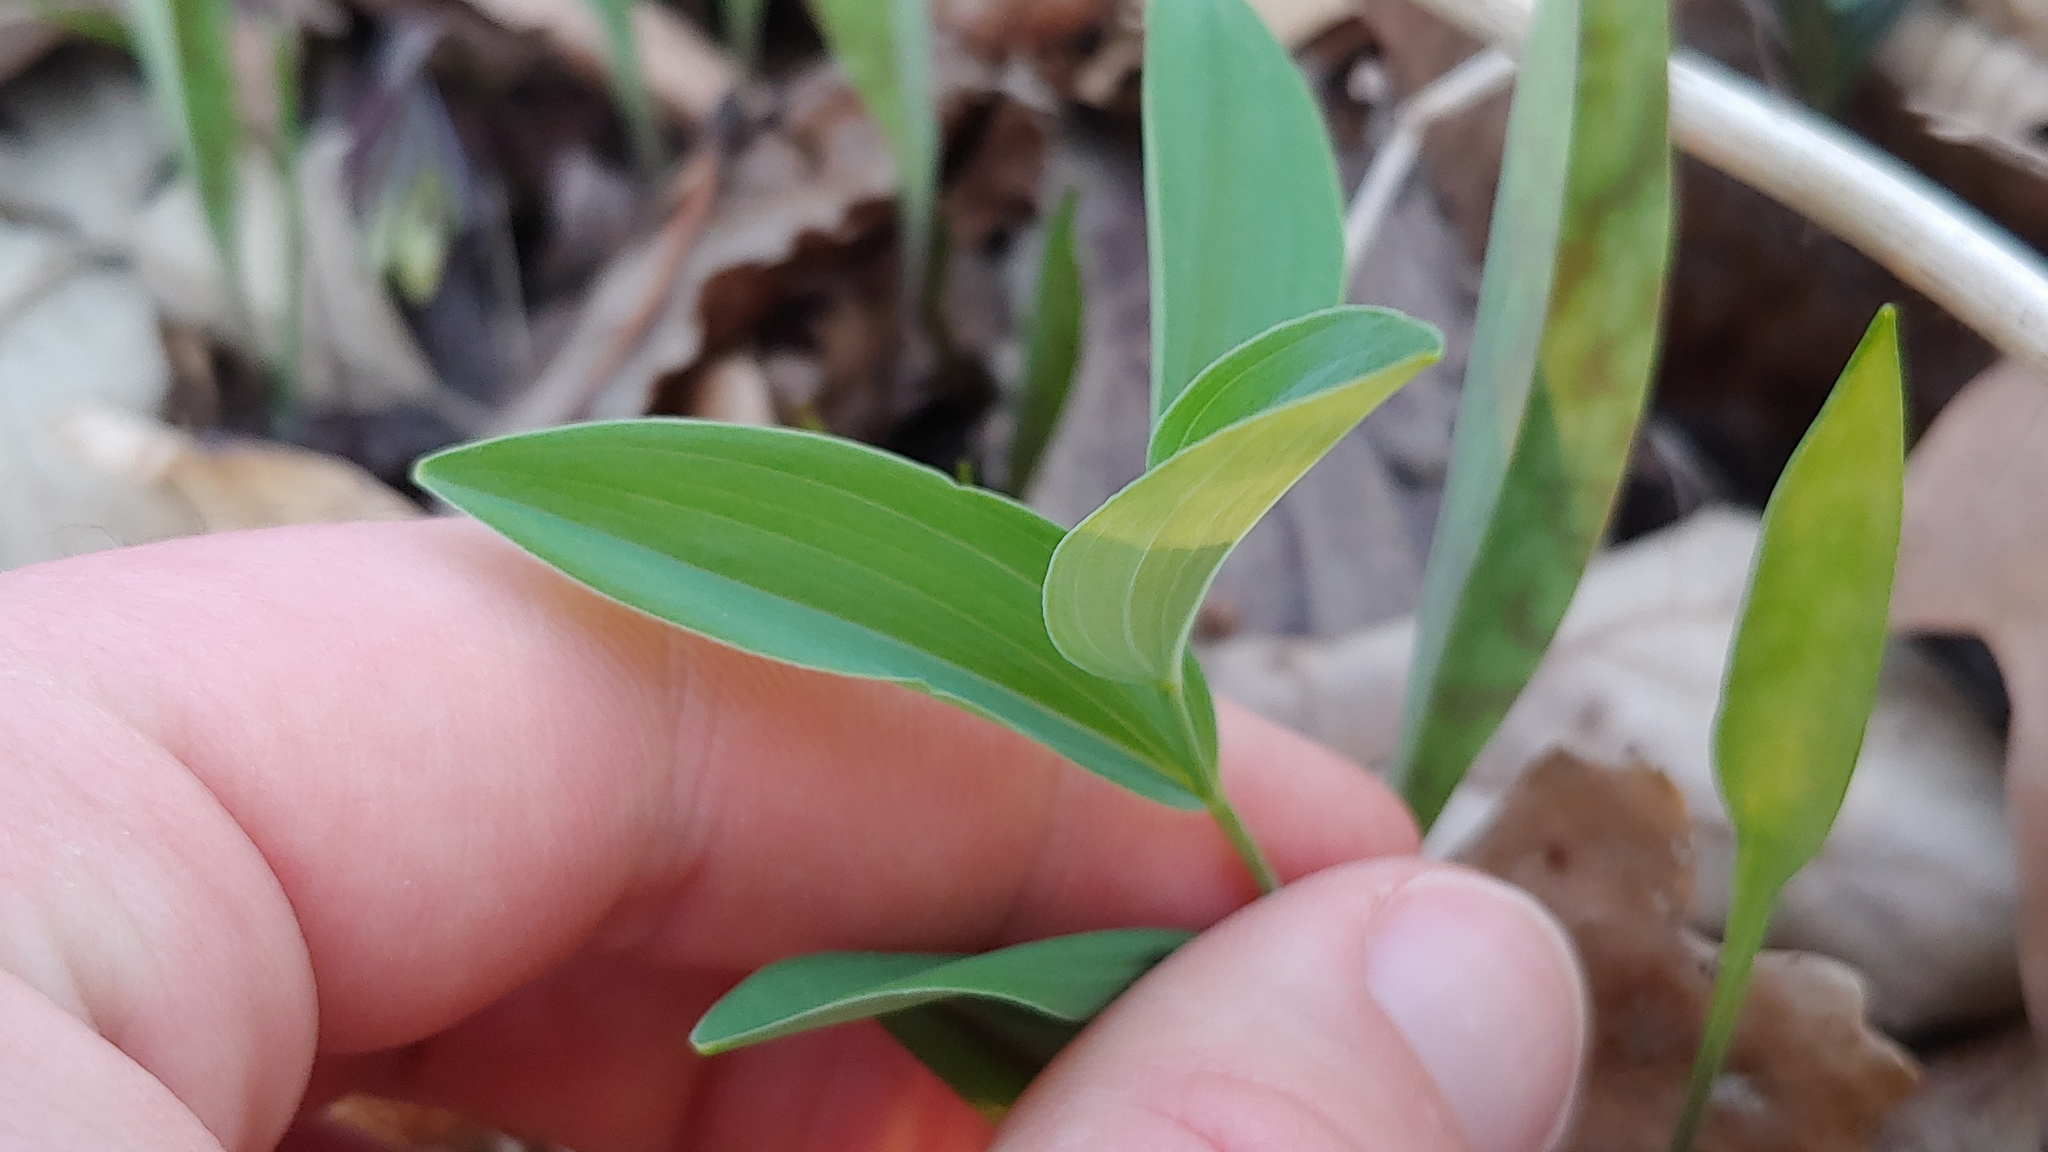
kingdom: Plantae
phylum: Tracheophyta
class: Liliopsida
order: Asparagales
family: Asparagaceae
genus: Polygonatum
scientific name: Polygonatum biflorum
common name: American solomon's-seal
